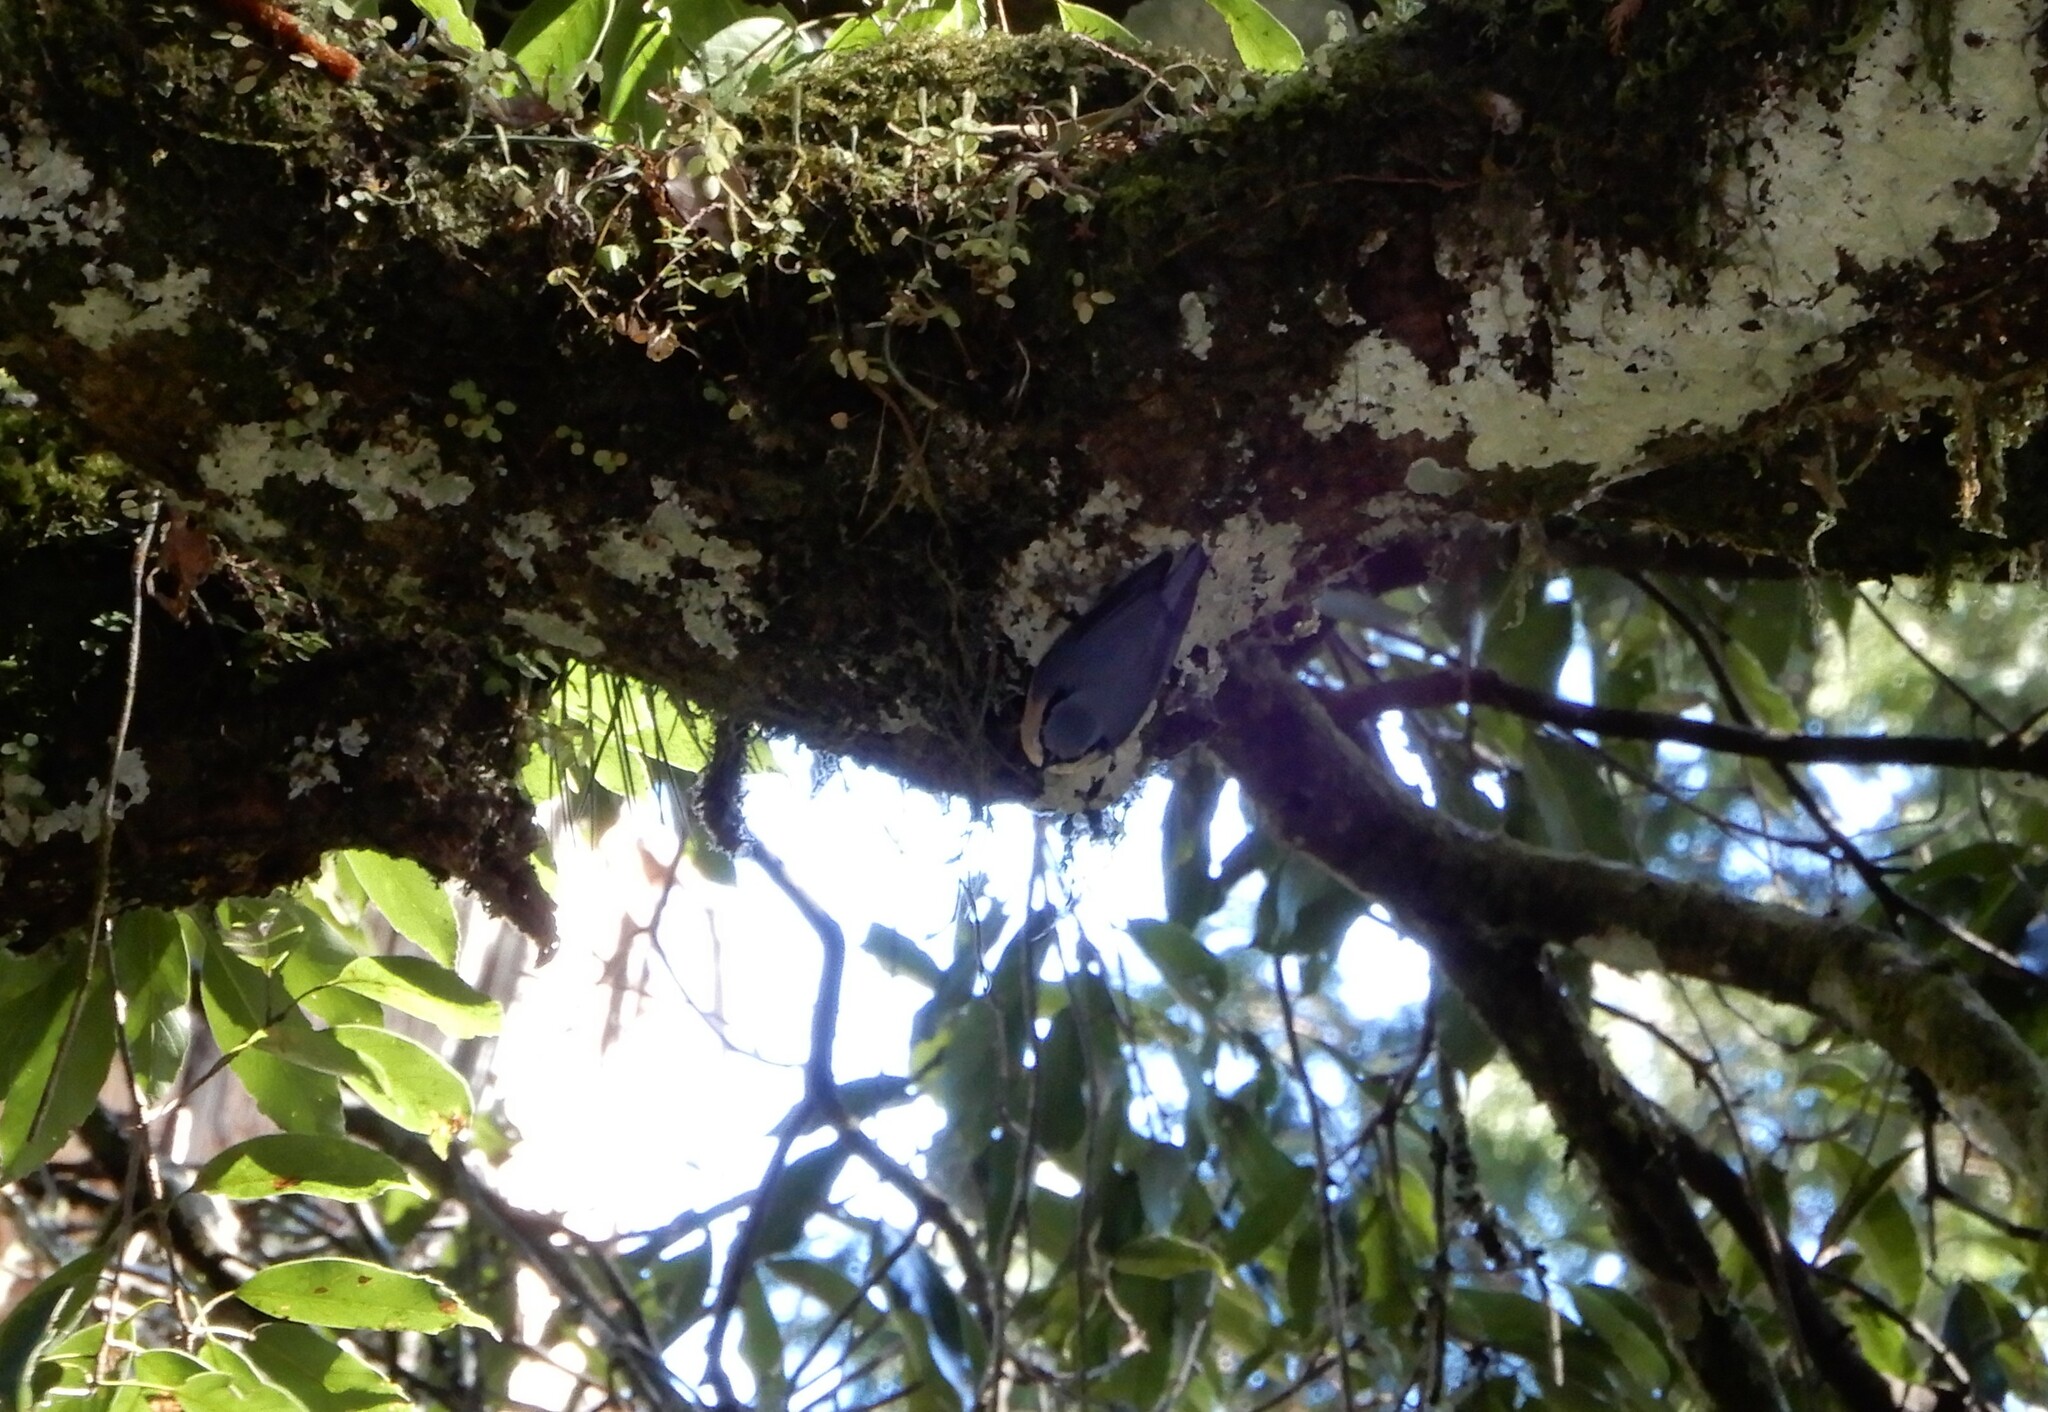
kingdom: Animalia
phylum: Chordata
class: Aves
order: Passeriformes
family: Sittidae
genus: Sitta
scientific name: Sitta europaea
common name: Eurasian nuthatch
